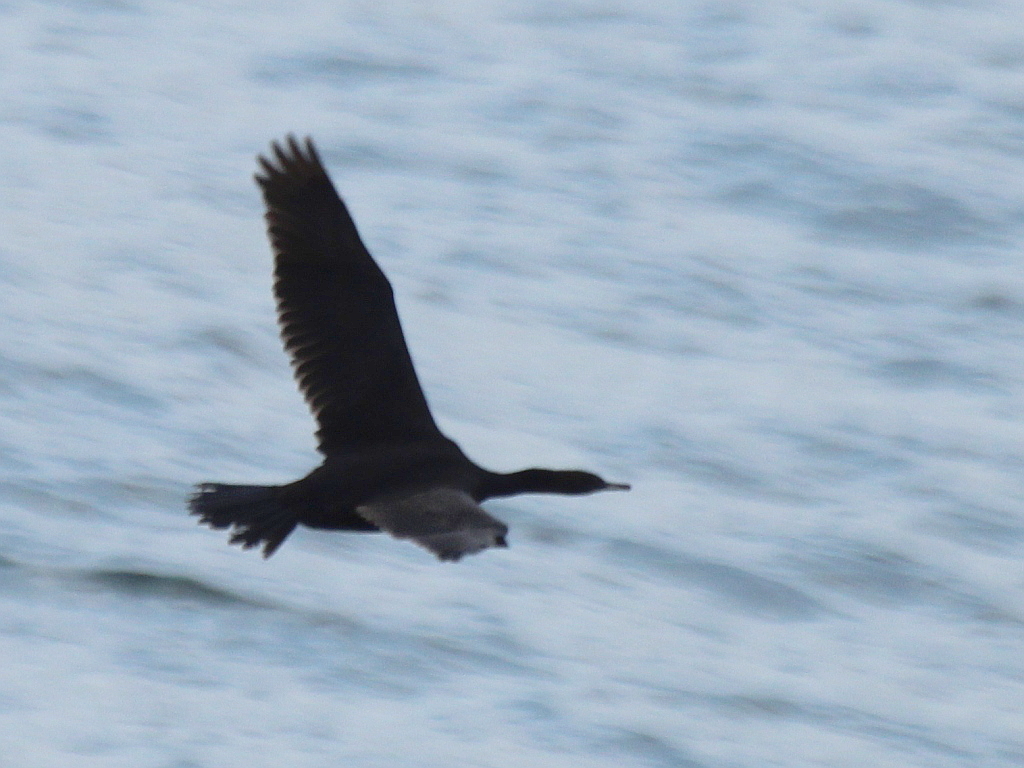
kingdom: Animalia
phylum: Chordata
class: Aves
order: Suliformes
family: Phalacrocoracidae
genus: Phalacrocorax
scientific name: Phalacrocorax pelagicus
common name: Pelagic cormorant
